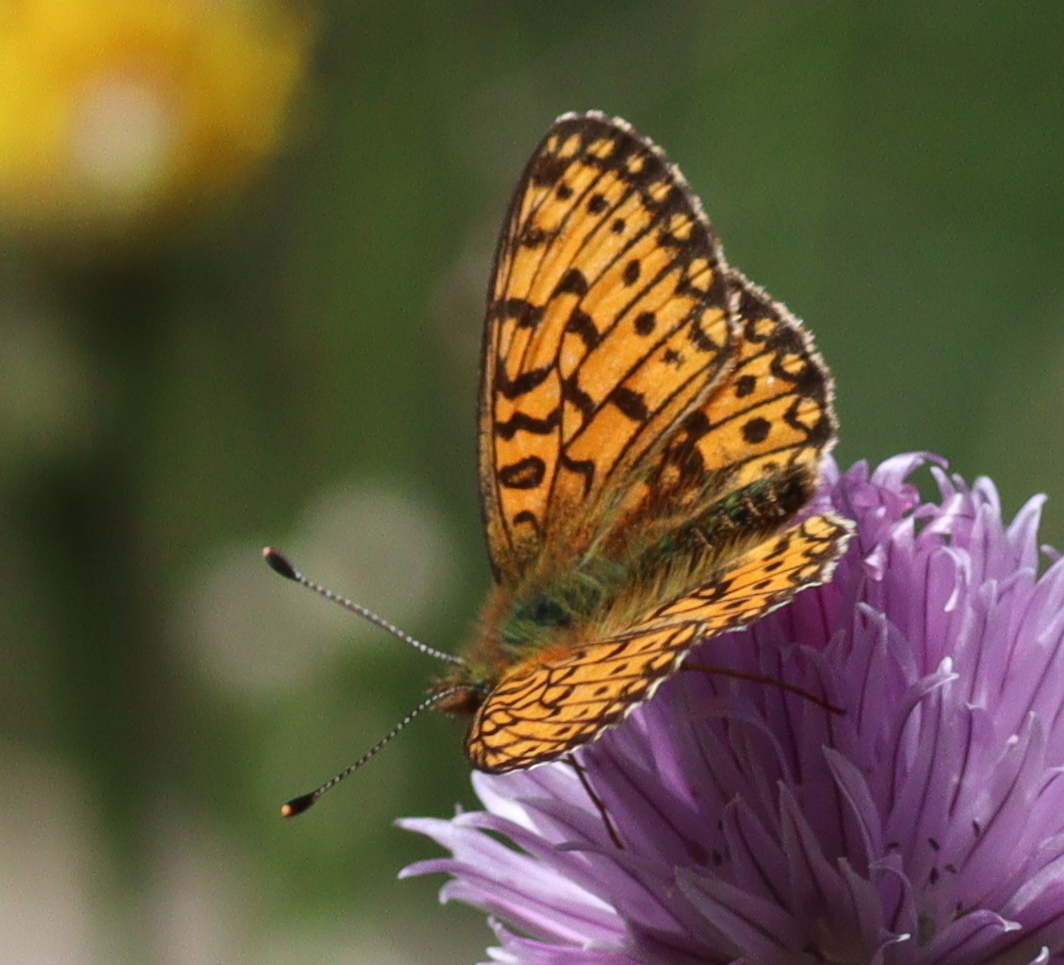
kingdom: Animalia
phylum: Arthropoda
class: Insecta
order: Lepidoptera
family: Nymphalidae
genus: Boloria
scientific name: Boloria selene
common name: Small pearl-bordered fritillary
